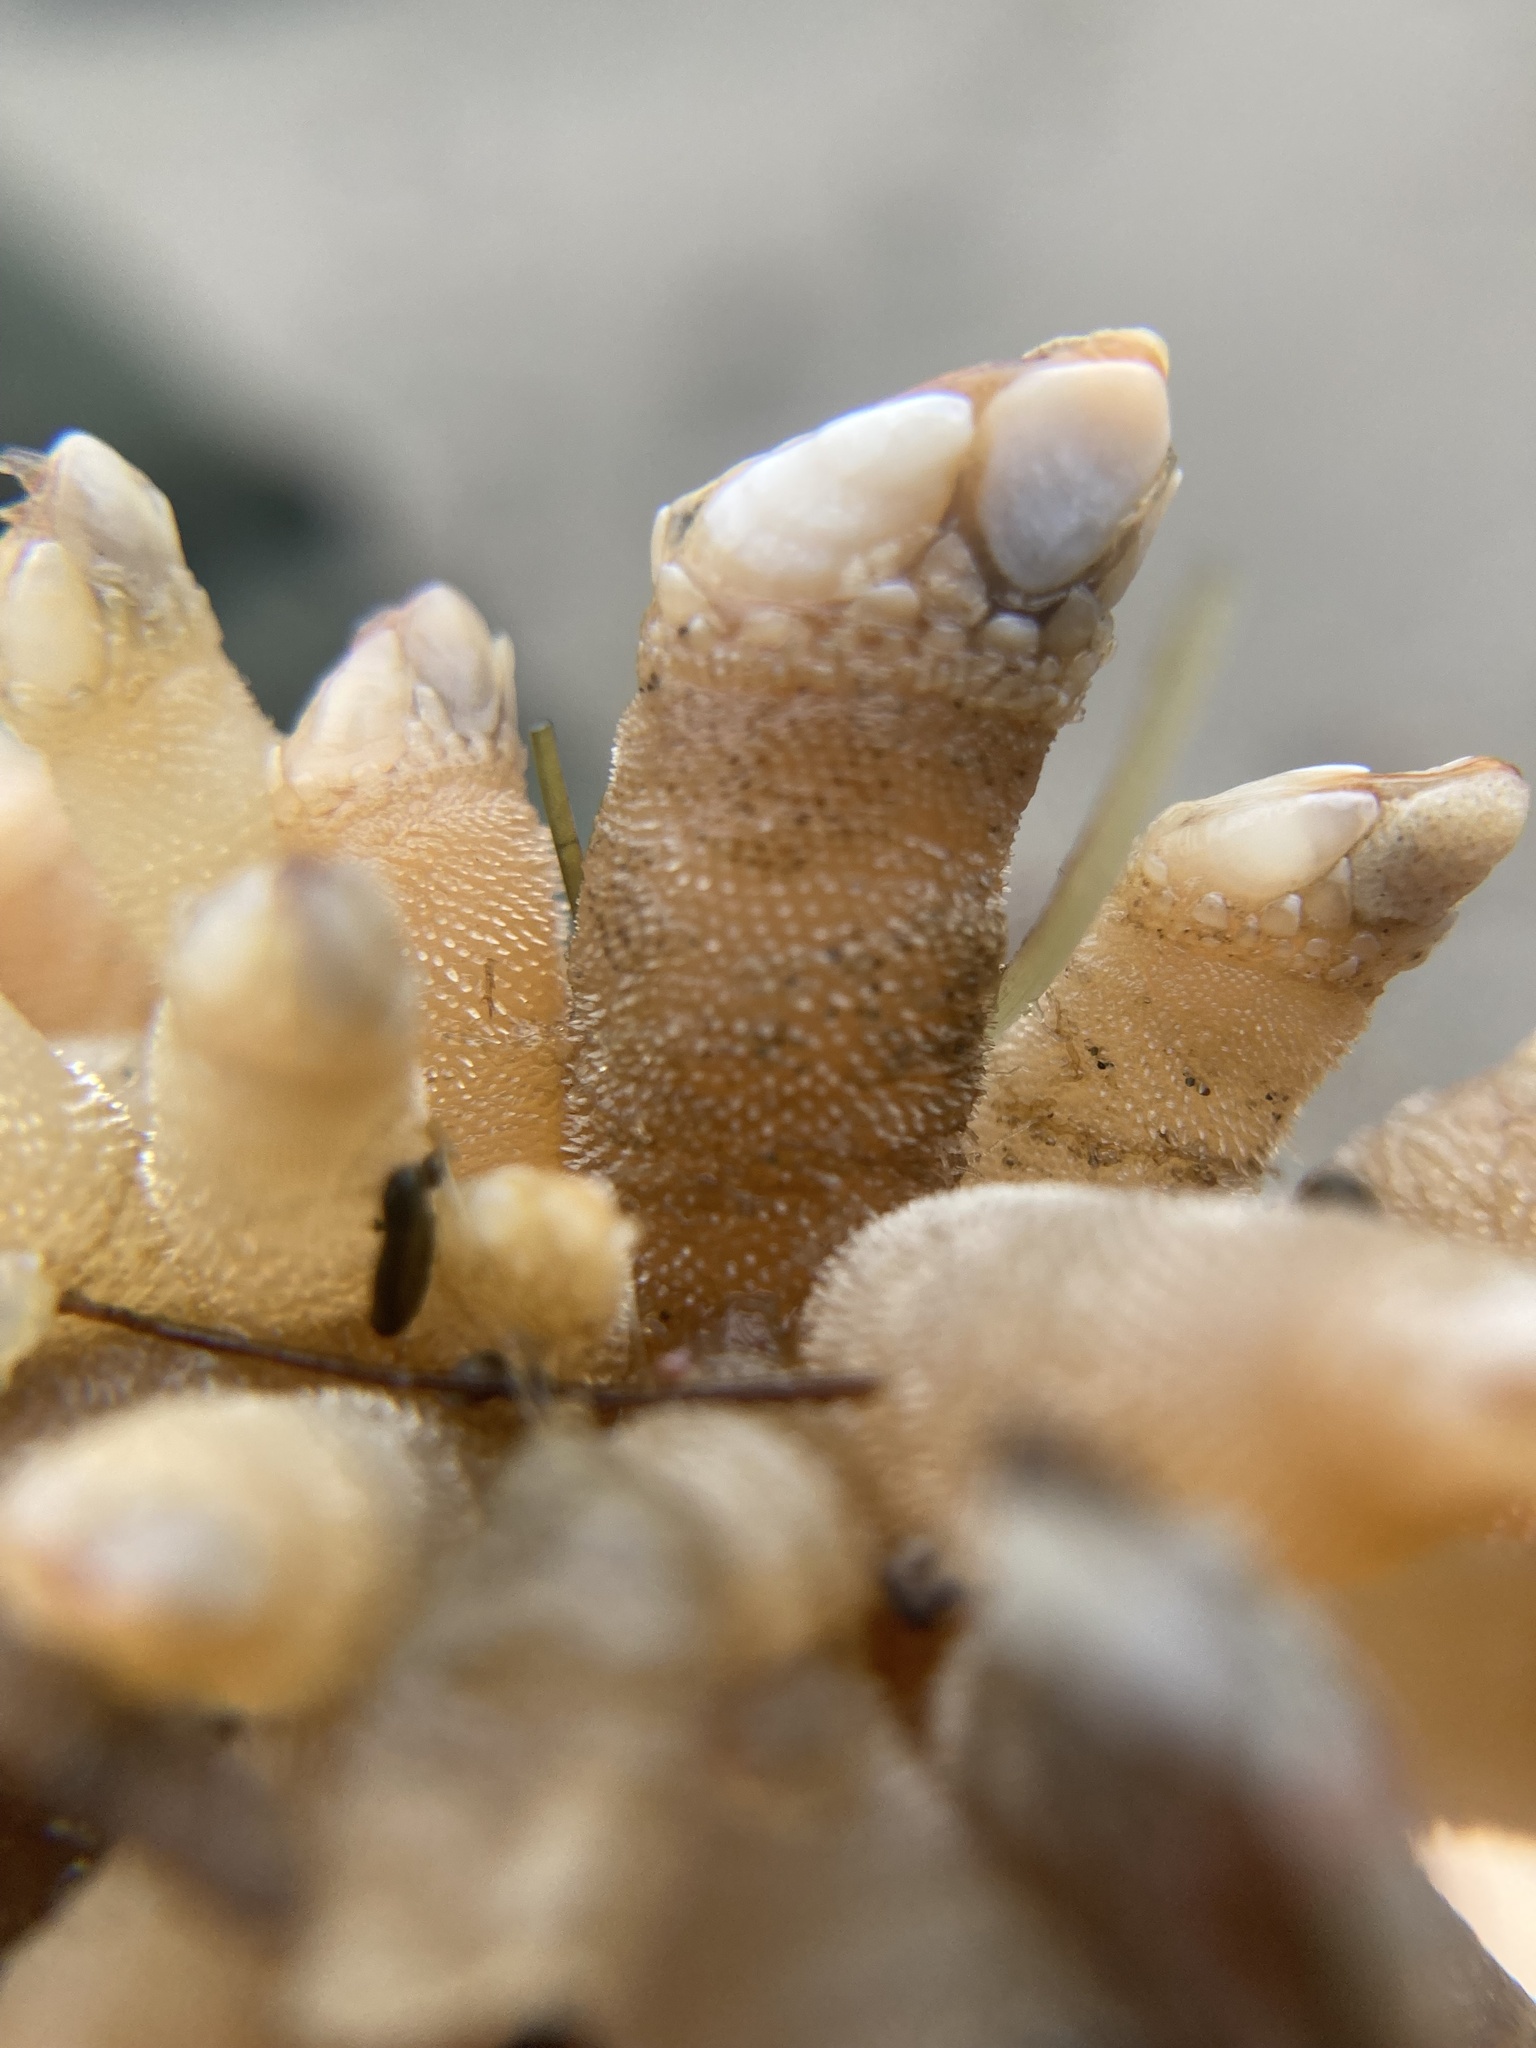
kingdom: Animalia
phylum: Arthropoda
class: Maxillopoda
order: Pedunculata
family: Pollicipedidae
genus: Pollicipes
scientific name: Pollicipes polymerus
